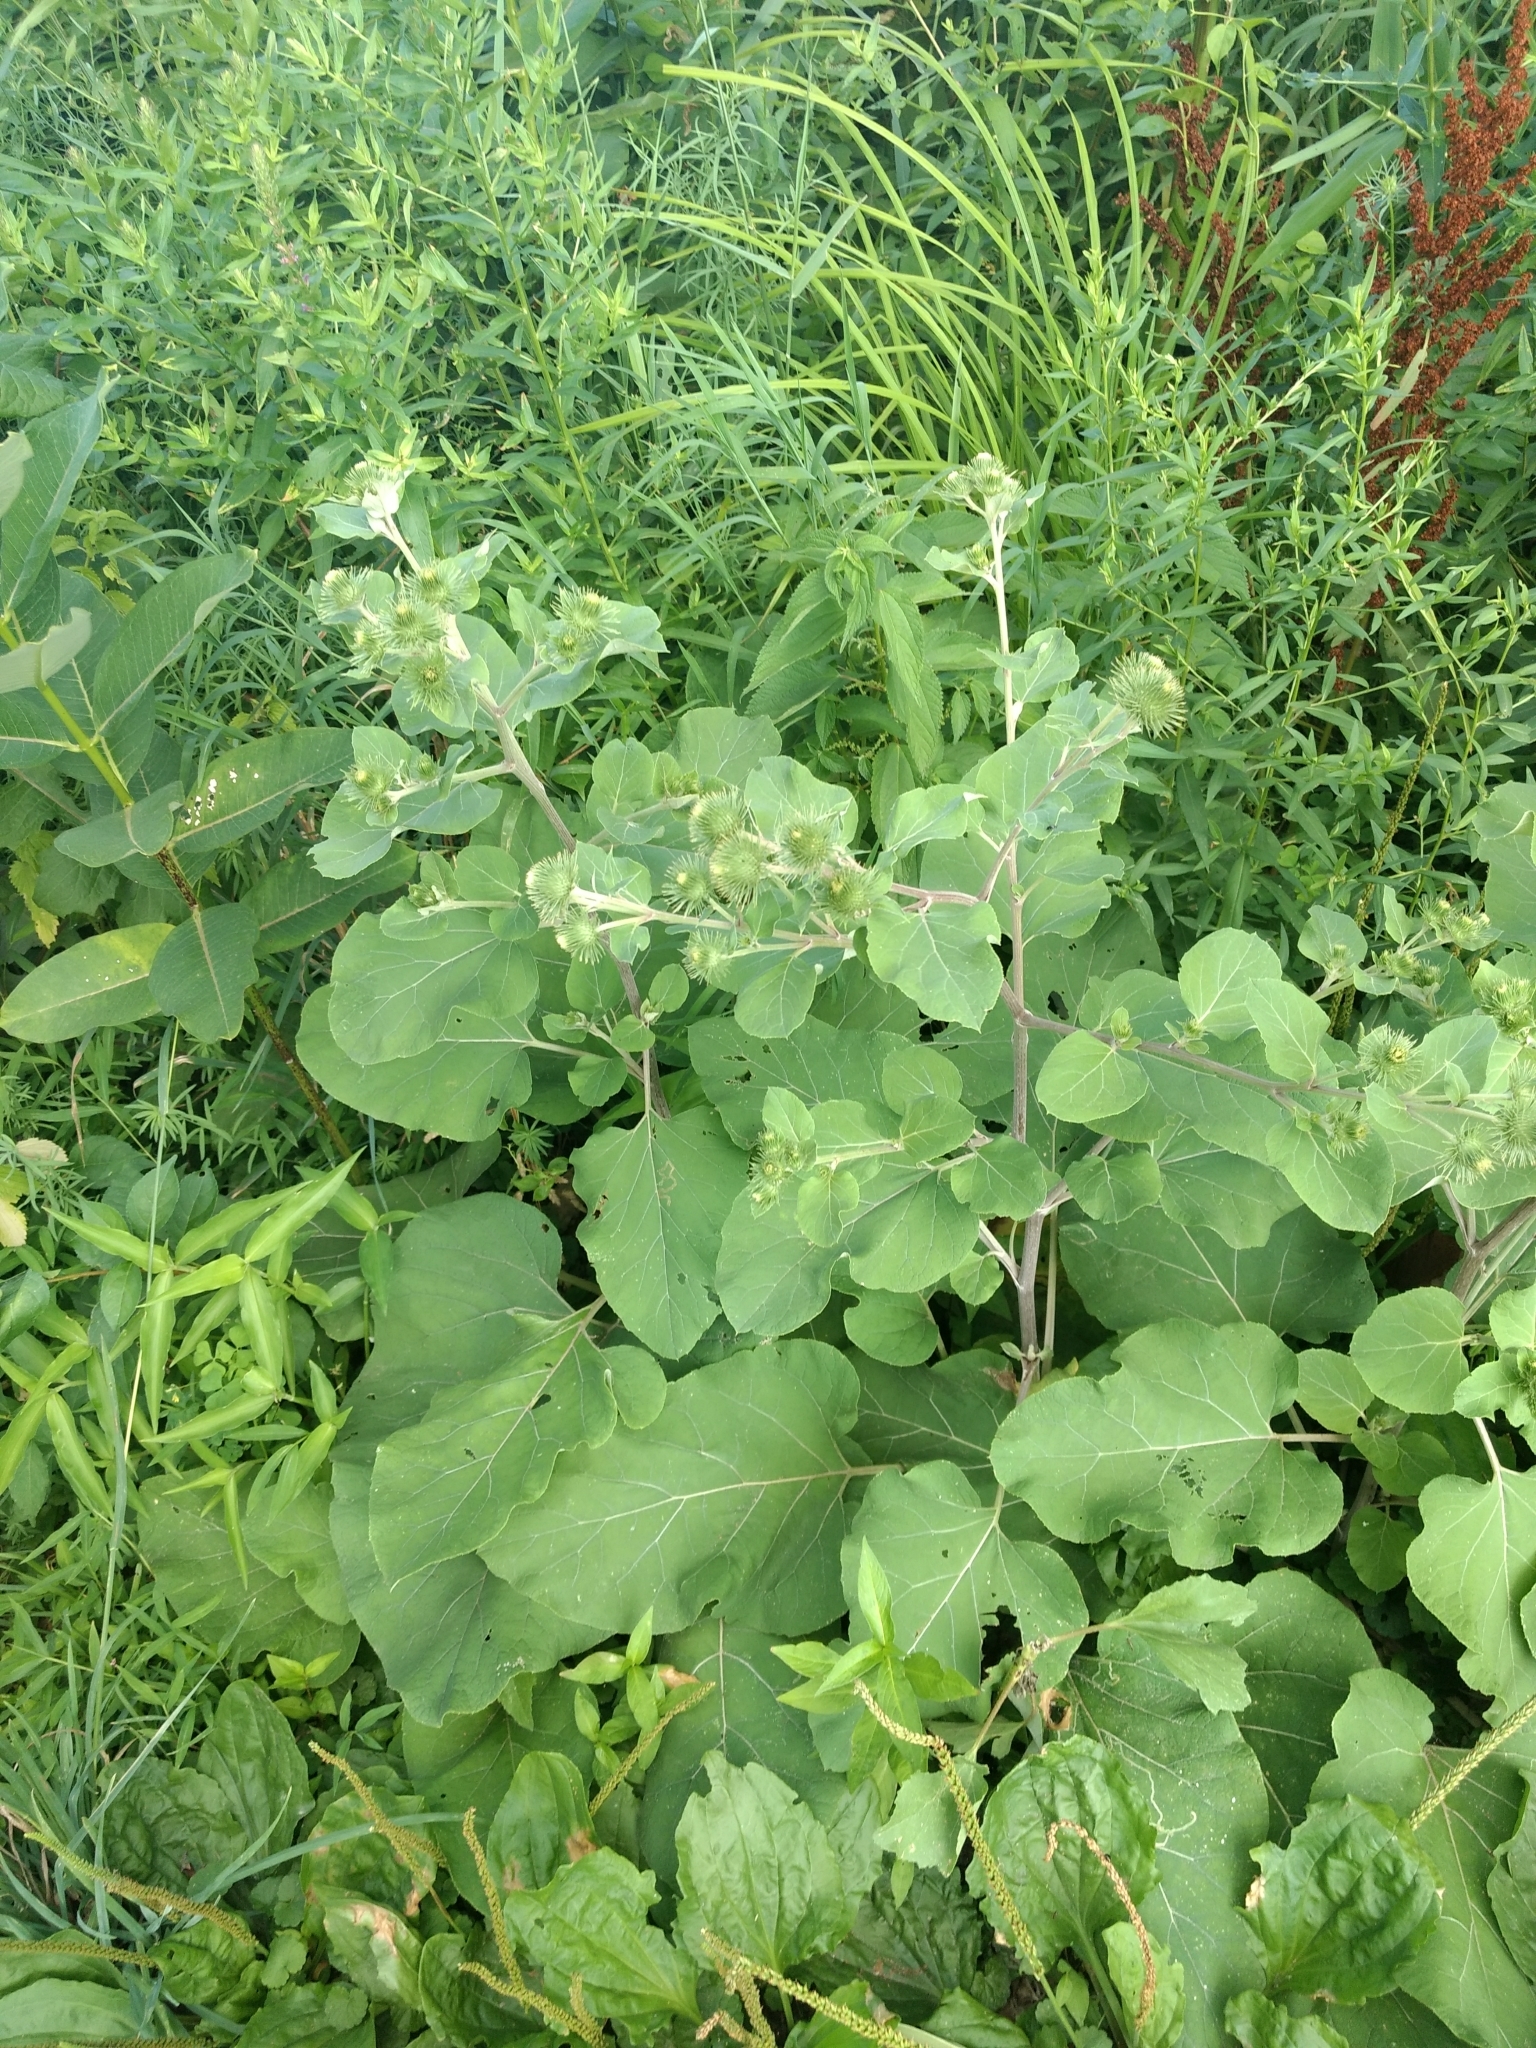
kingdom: Plantae
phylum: Tracheophyta
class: Magnoliopsida
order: Asterales
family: Asteraceae
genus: Arctium
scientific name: Arctium lappa
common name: Greater burdock
